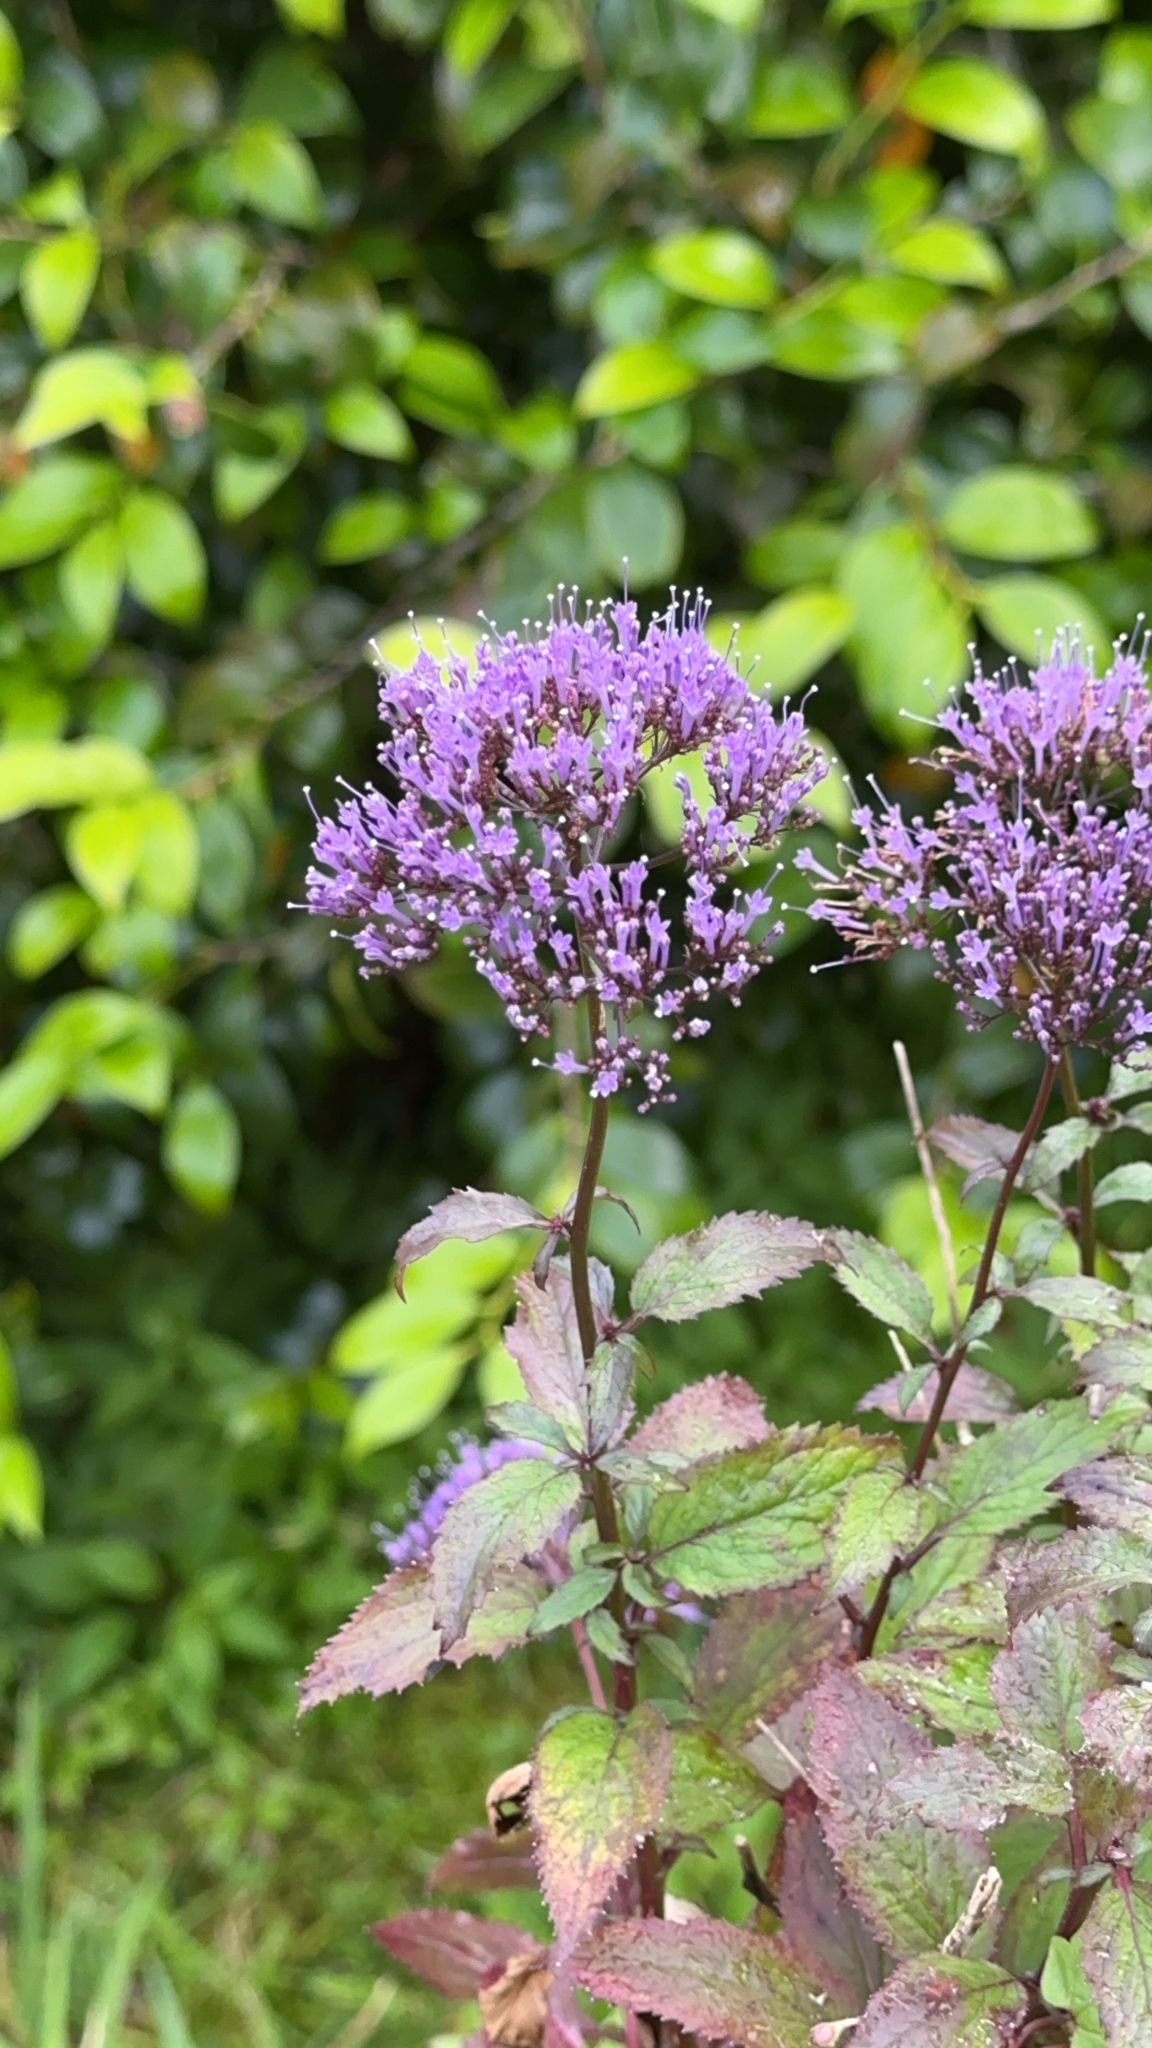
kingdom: Plantae
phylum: Tracheophyta
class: Magnoliopsida
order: Asterales
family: Campanulaceae
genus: Trachelium
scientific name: Trachelium caeruleum
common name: Throatwort
